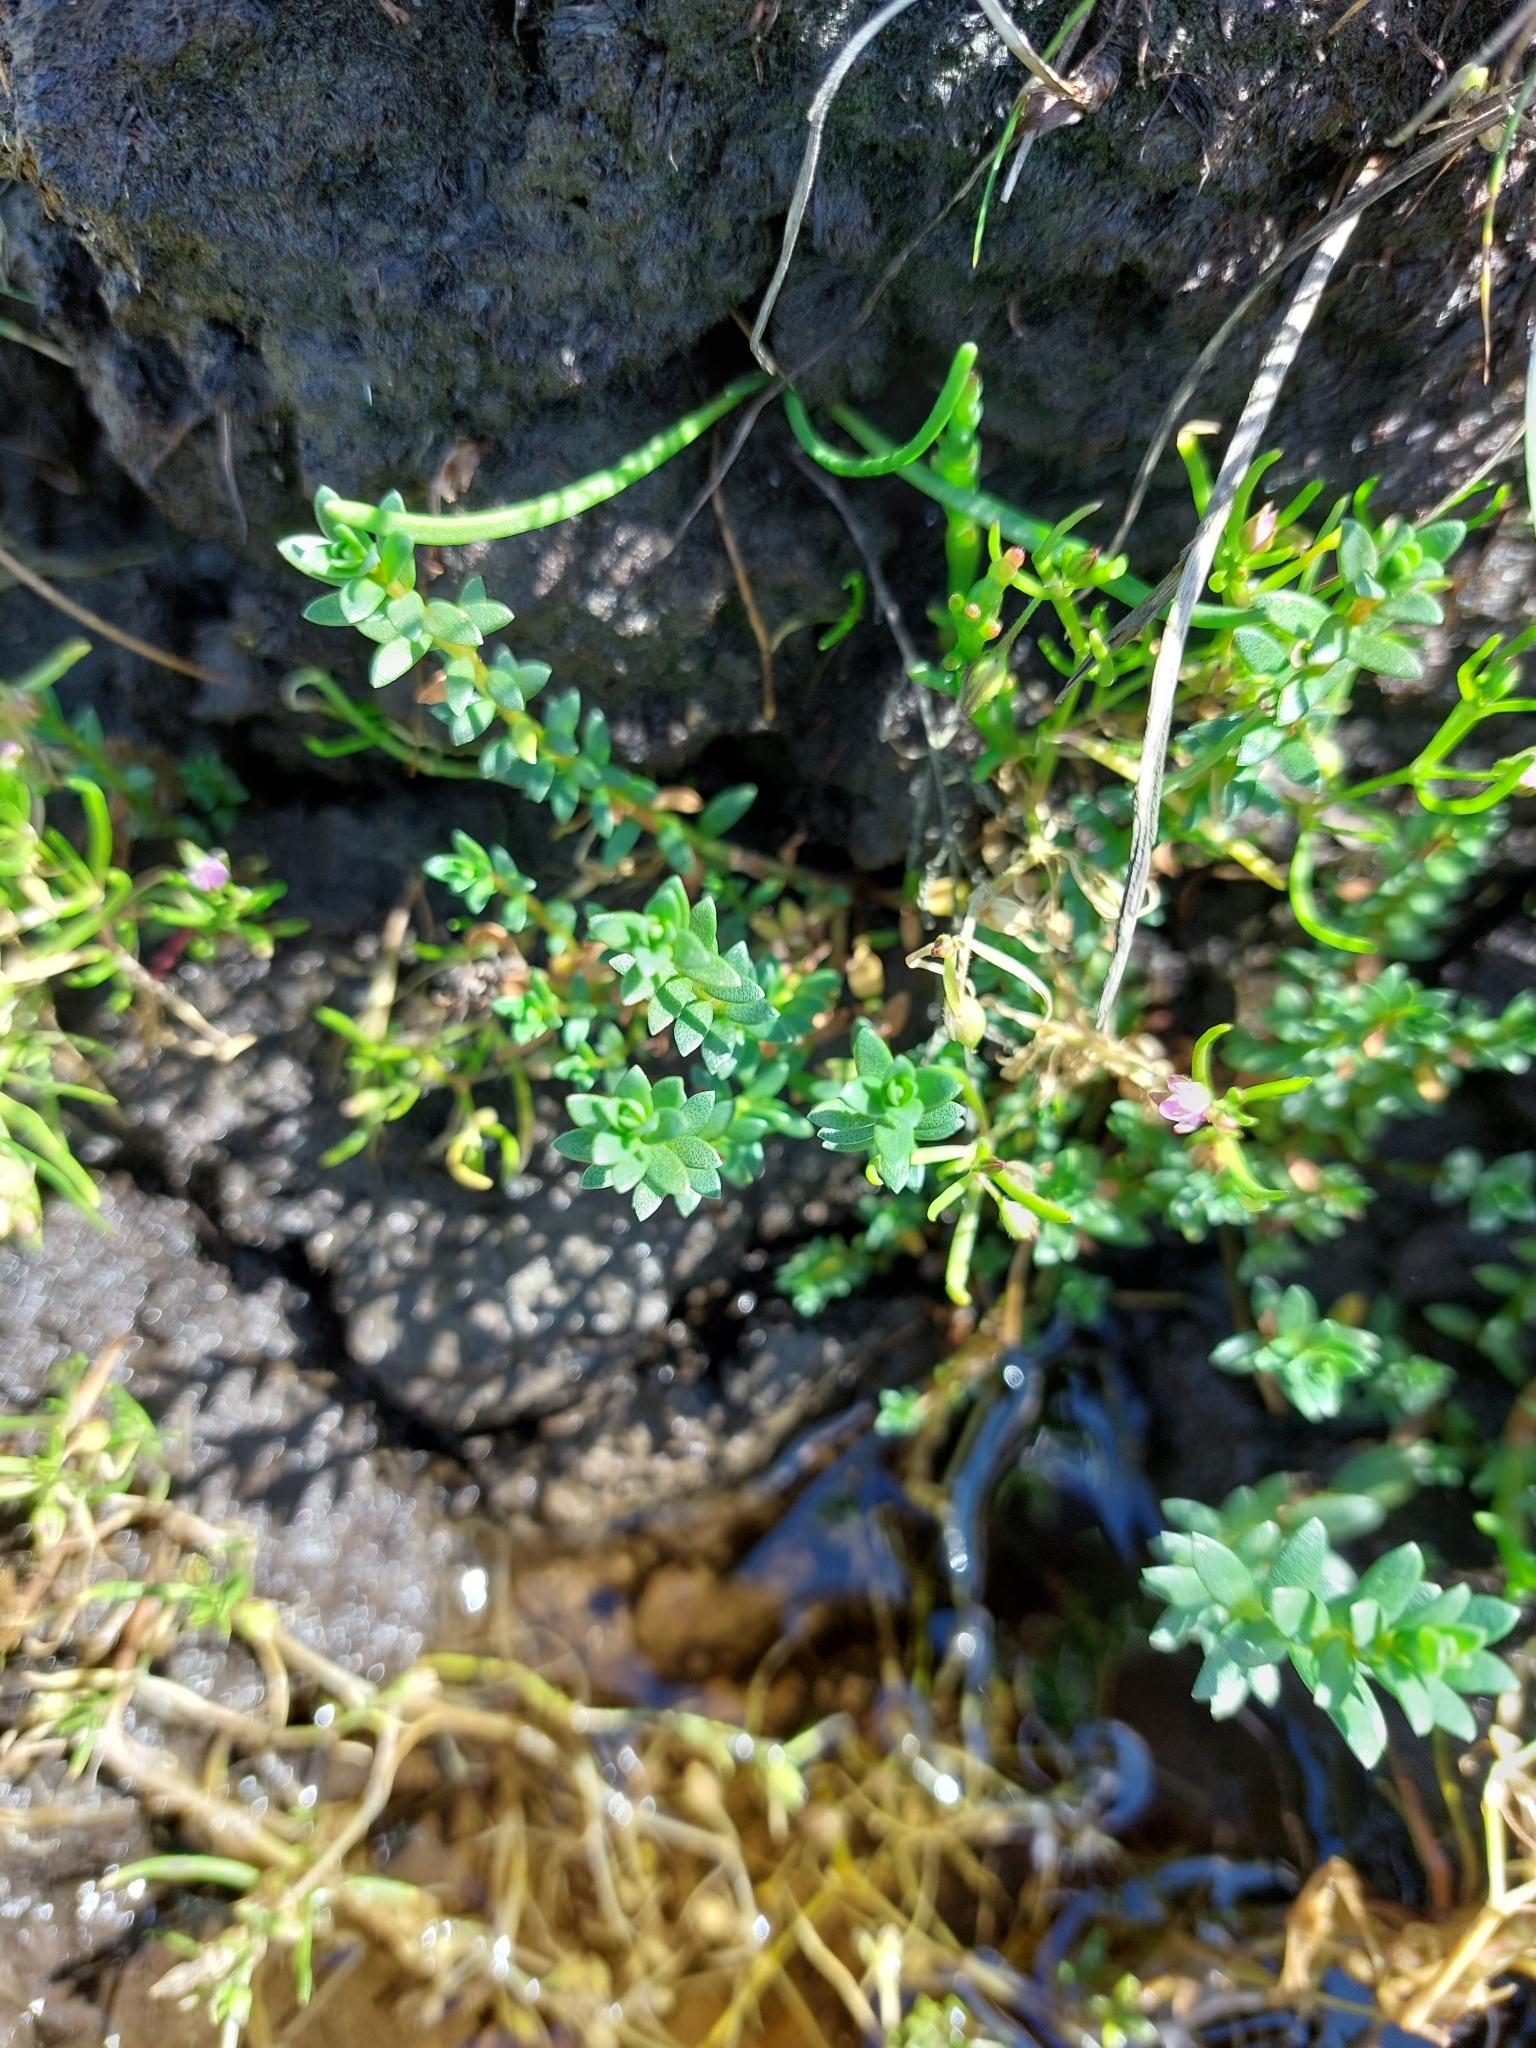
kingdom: Plantae
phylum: Tracheophyta
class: Magnoliopsida
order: Ericales
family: Primulaceae
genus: Lysimachia
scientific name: Lysimachia maritima
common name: Sea milkwort
